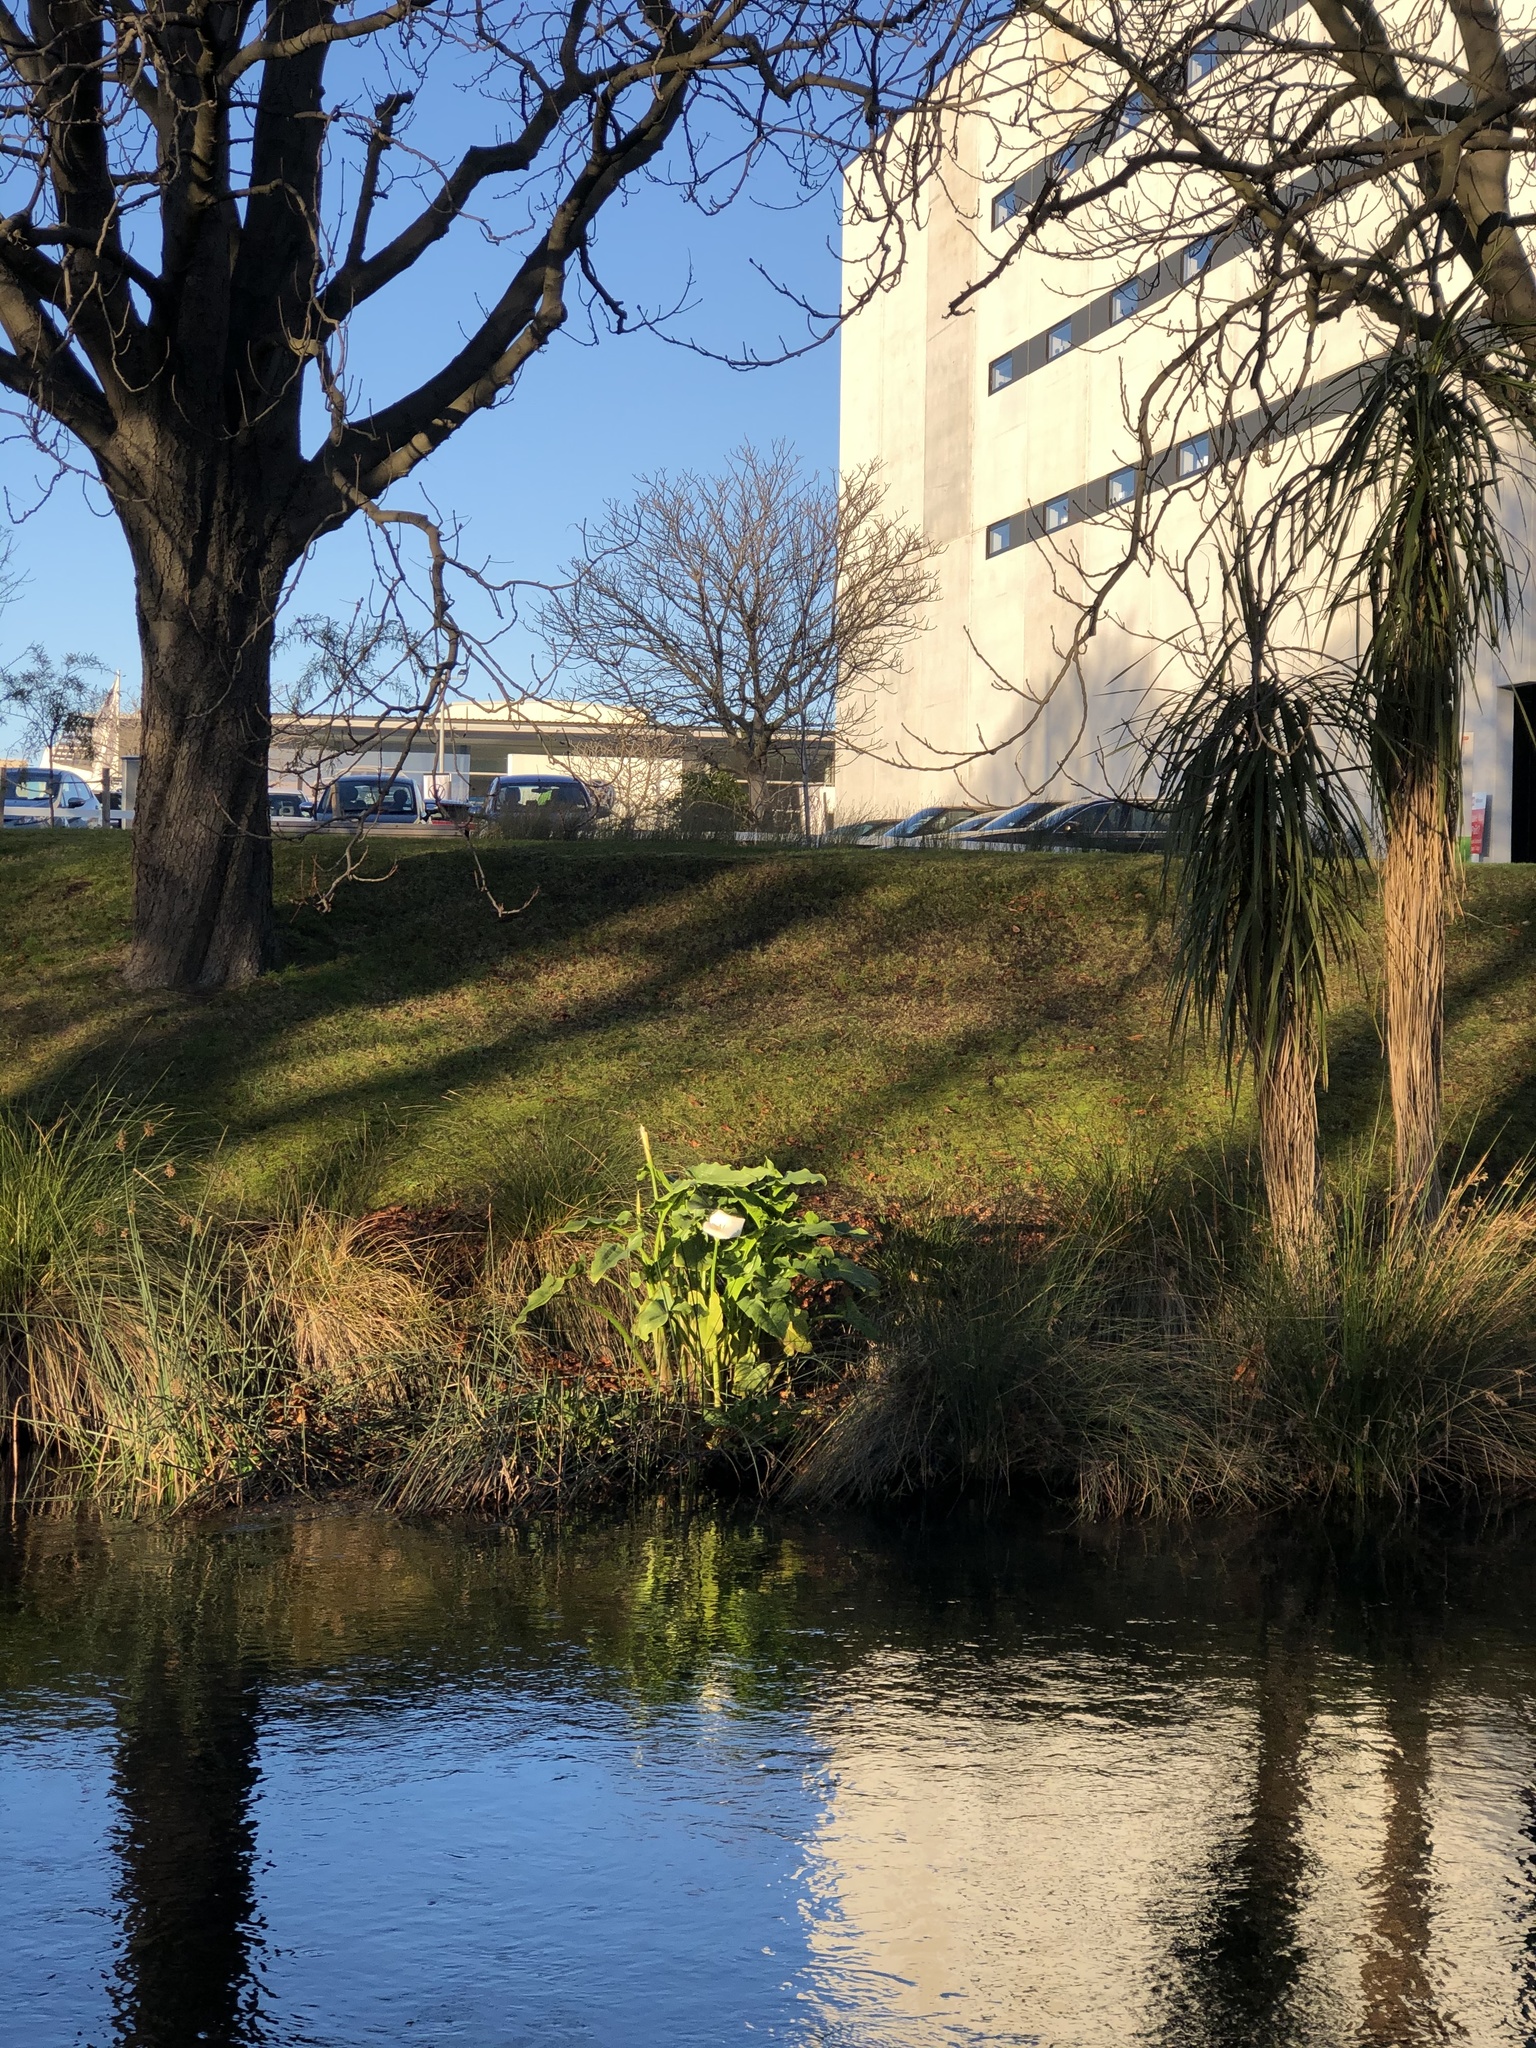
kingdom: Plantae
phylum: Tracheophyta
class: Liliopsida
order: Alismatales
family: Araceae
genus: Zantedeschia
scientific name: Zantedeschia aethiopica
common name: Altar-lily
